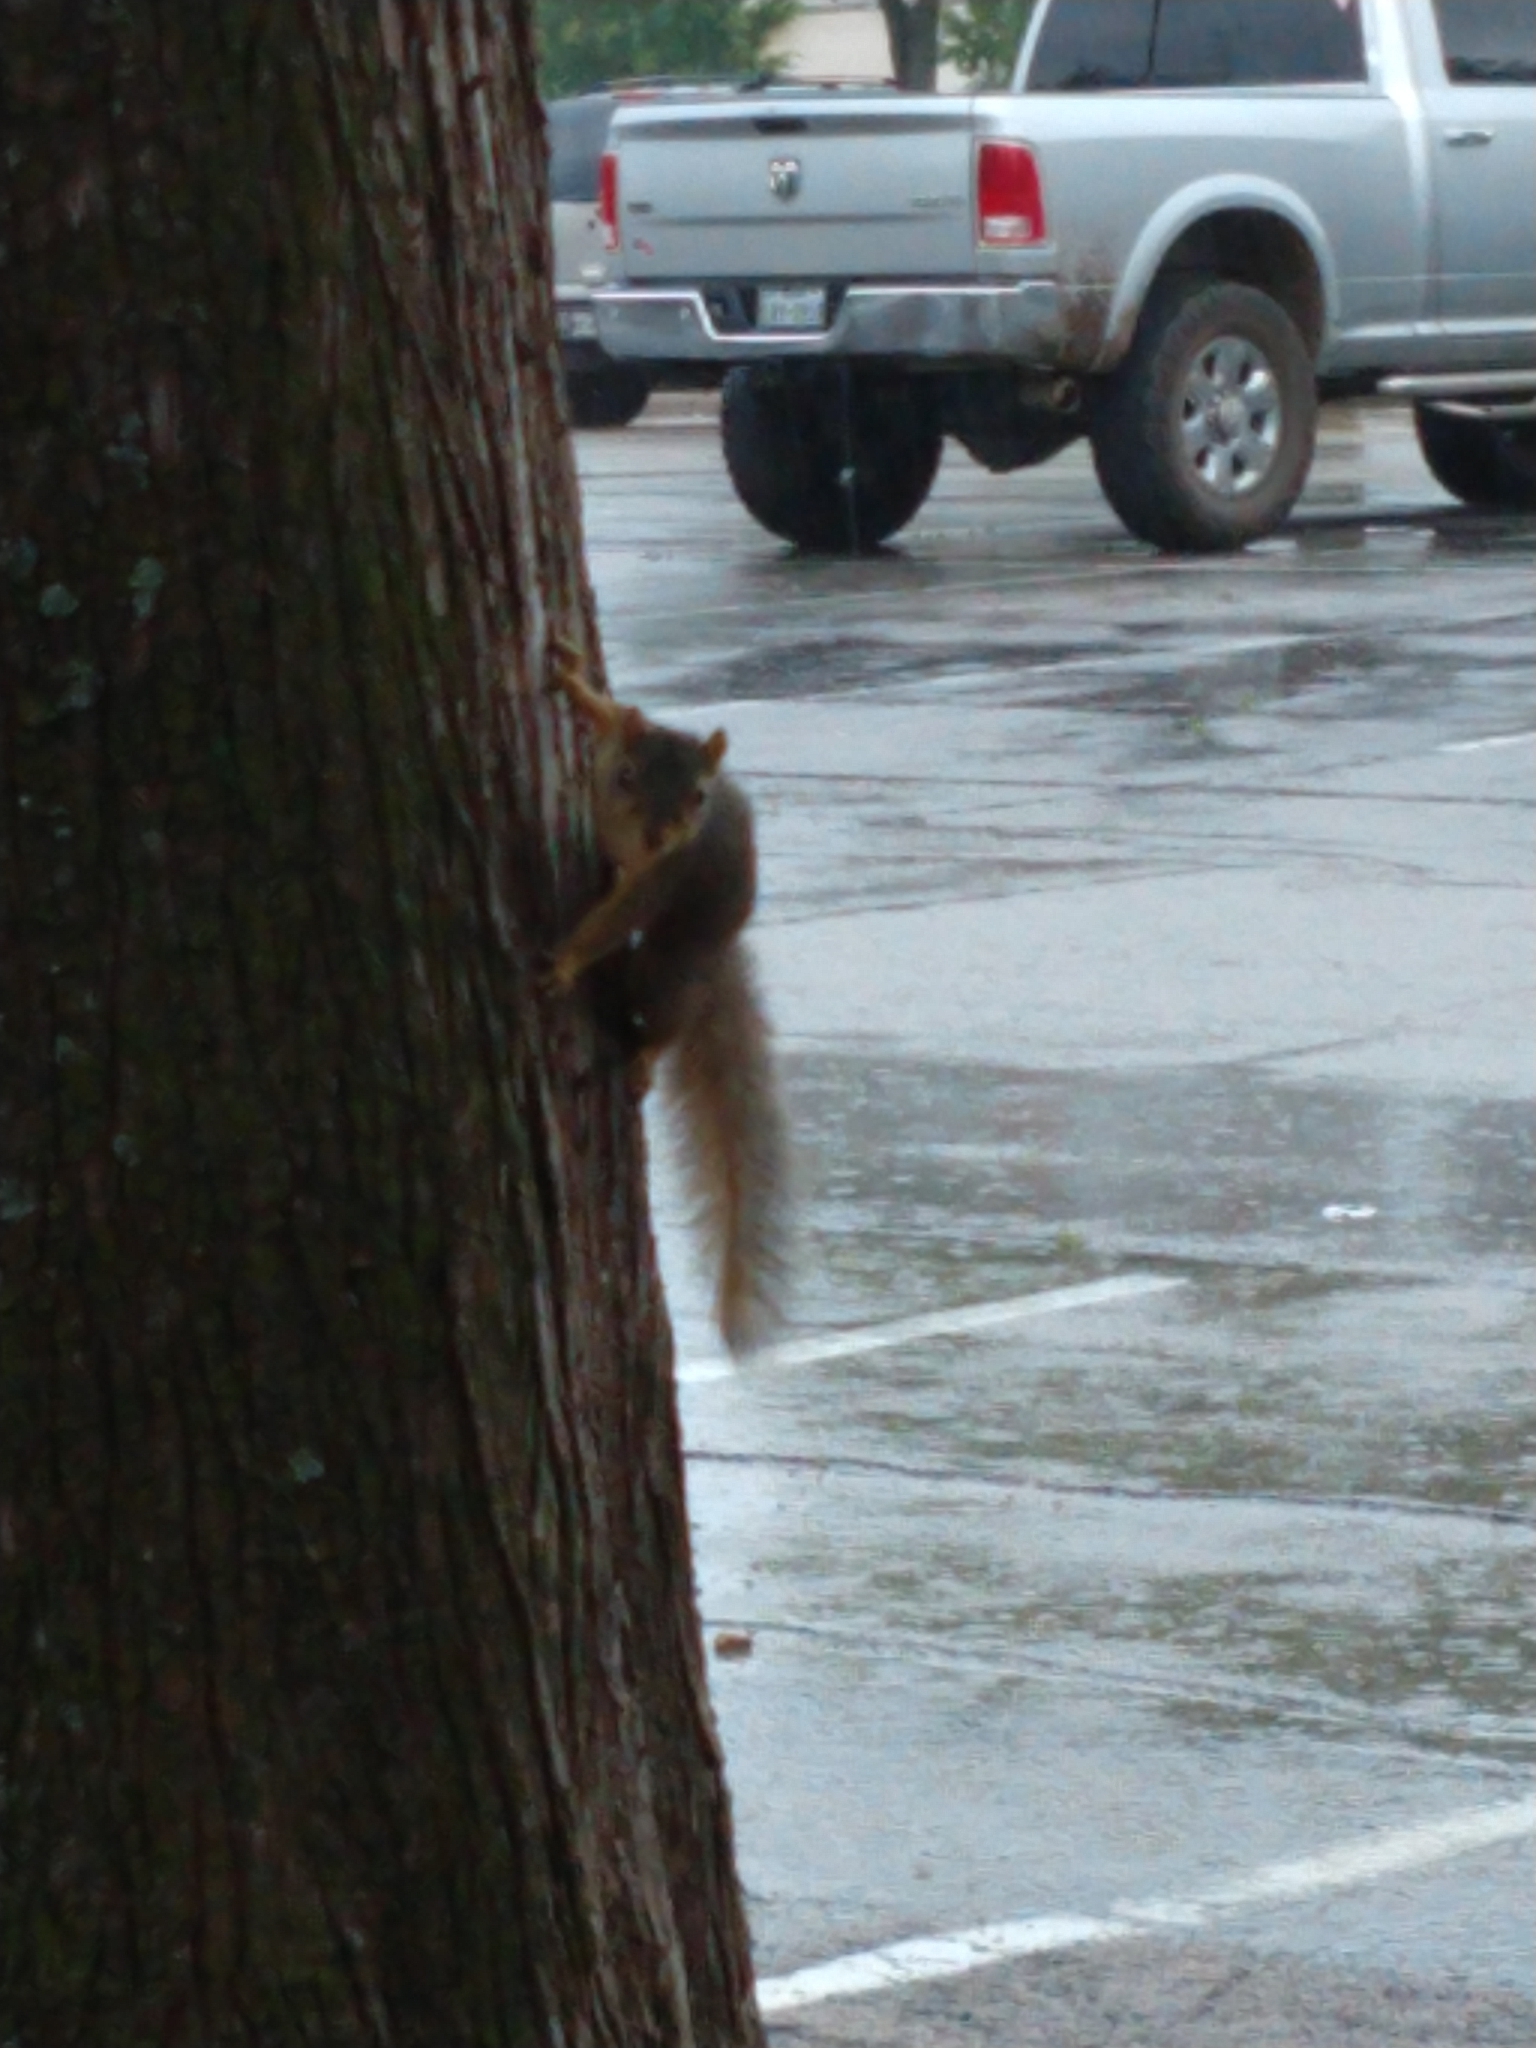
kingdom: Animalia
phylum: Chordata
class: Mammalia
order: Rodentia
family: Sciuridae
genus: Sciurus
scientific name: Sciurus niger
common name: Fox squirrel
